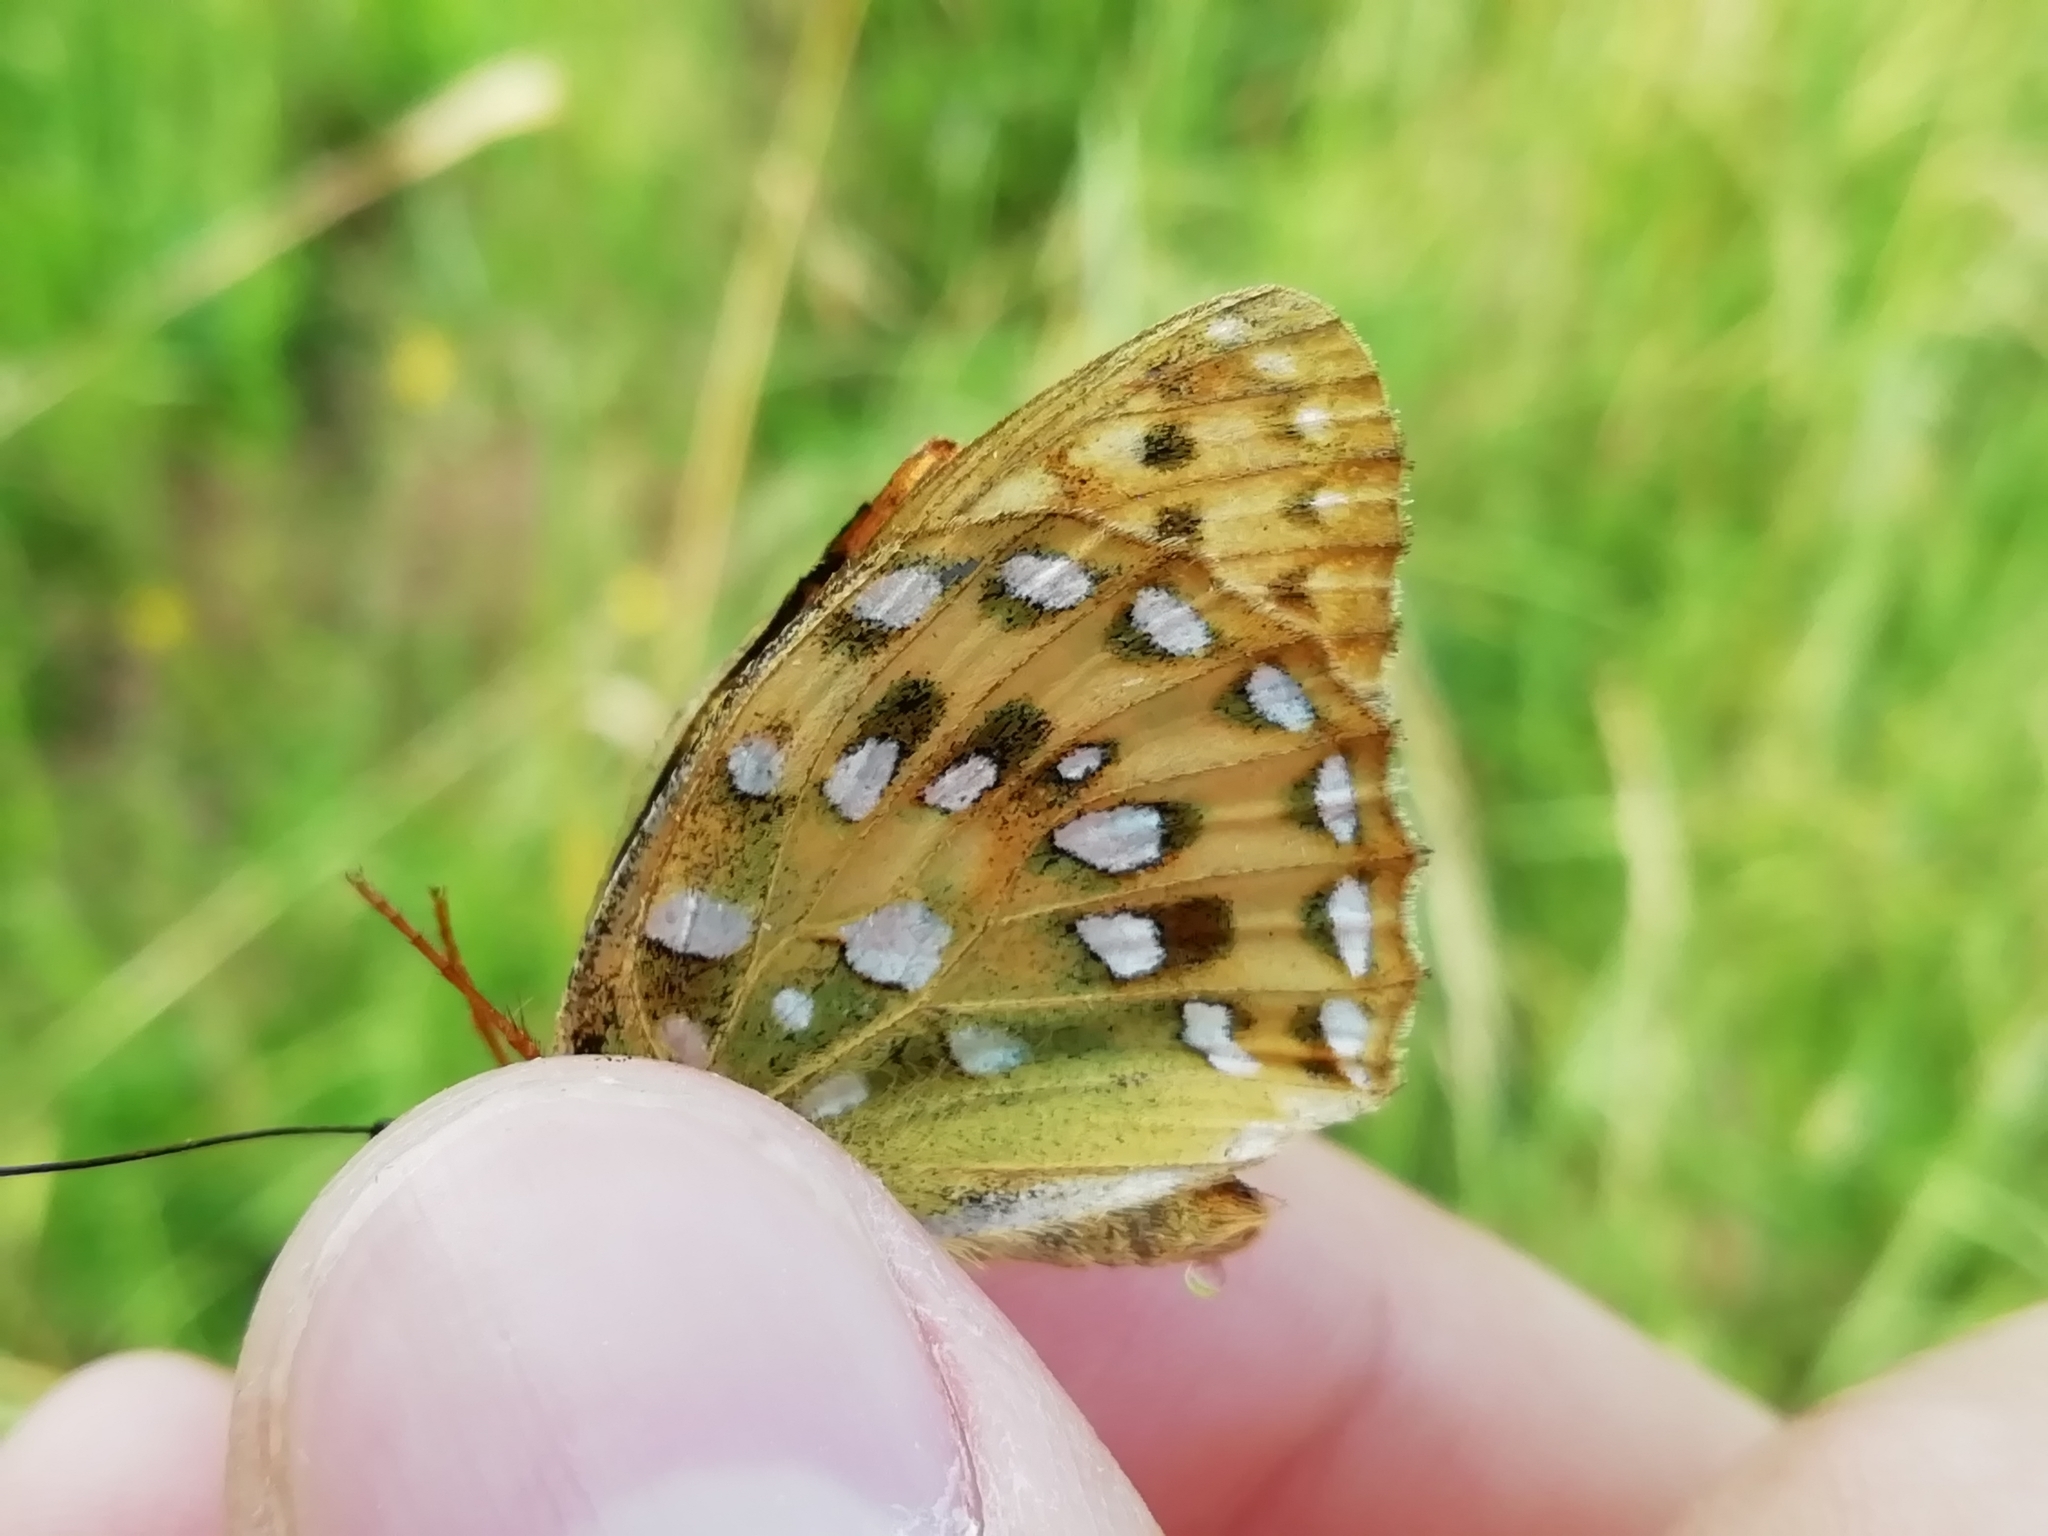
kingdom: Animalia
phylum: Arthropoda
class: Insecta
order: Lepidoptera
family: Nymphalidae
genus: Speyeria
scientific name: Speyeria aglaja
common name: Dark green fritillary
